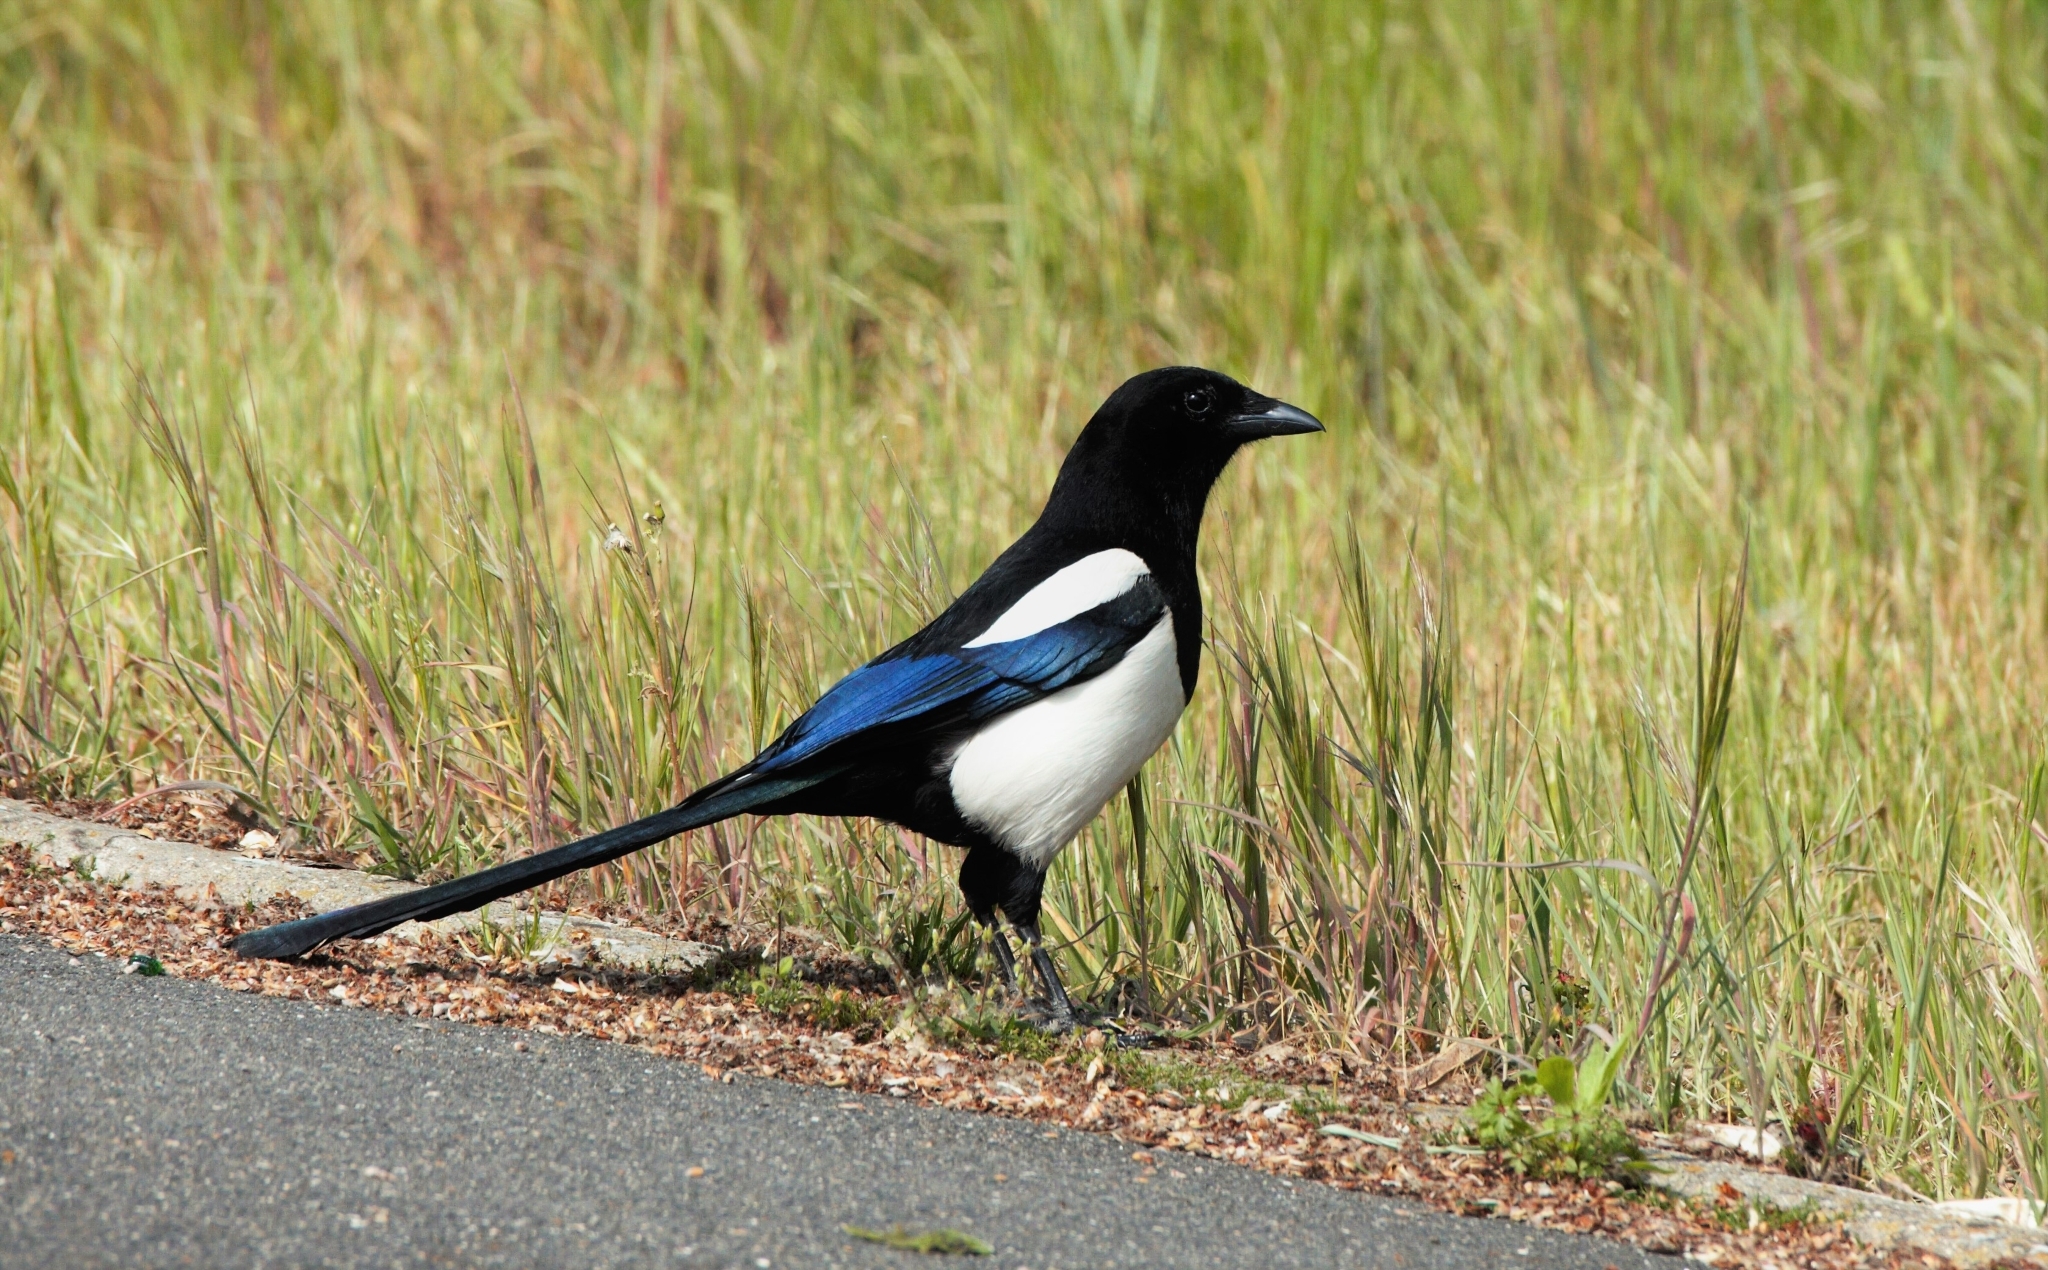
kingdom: Animalia
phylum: Chordata
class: Aves
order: Passeriformes
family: Corvidae
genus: Pica
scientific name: Pica pica
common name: Eurasian magpie
